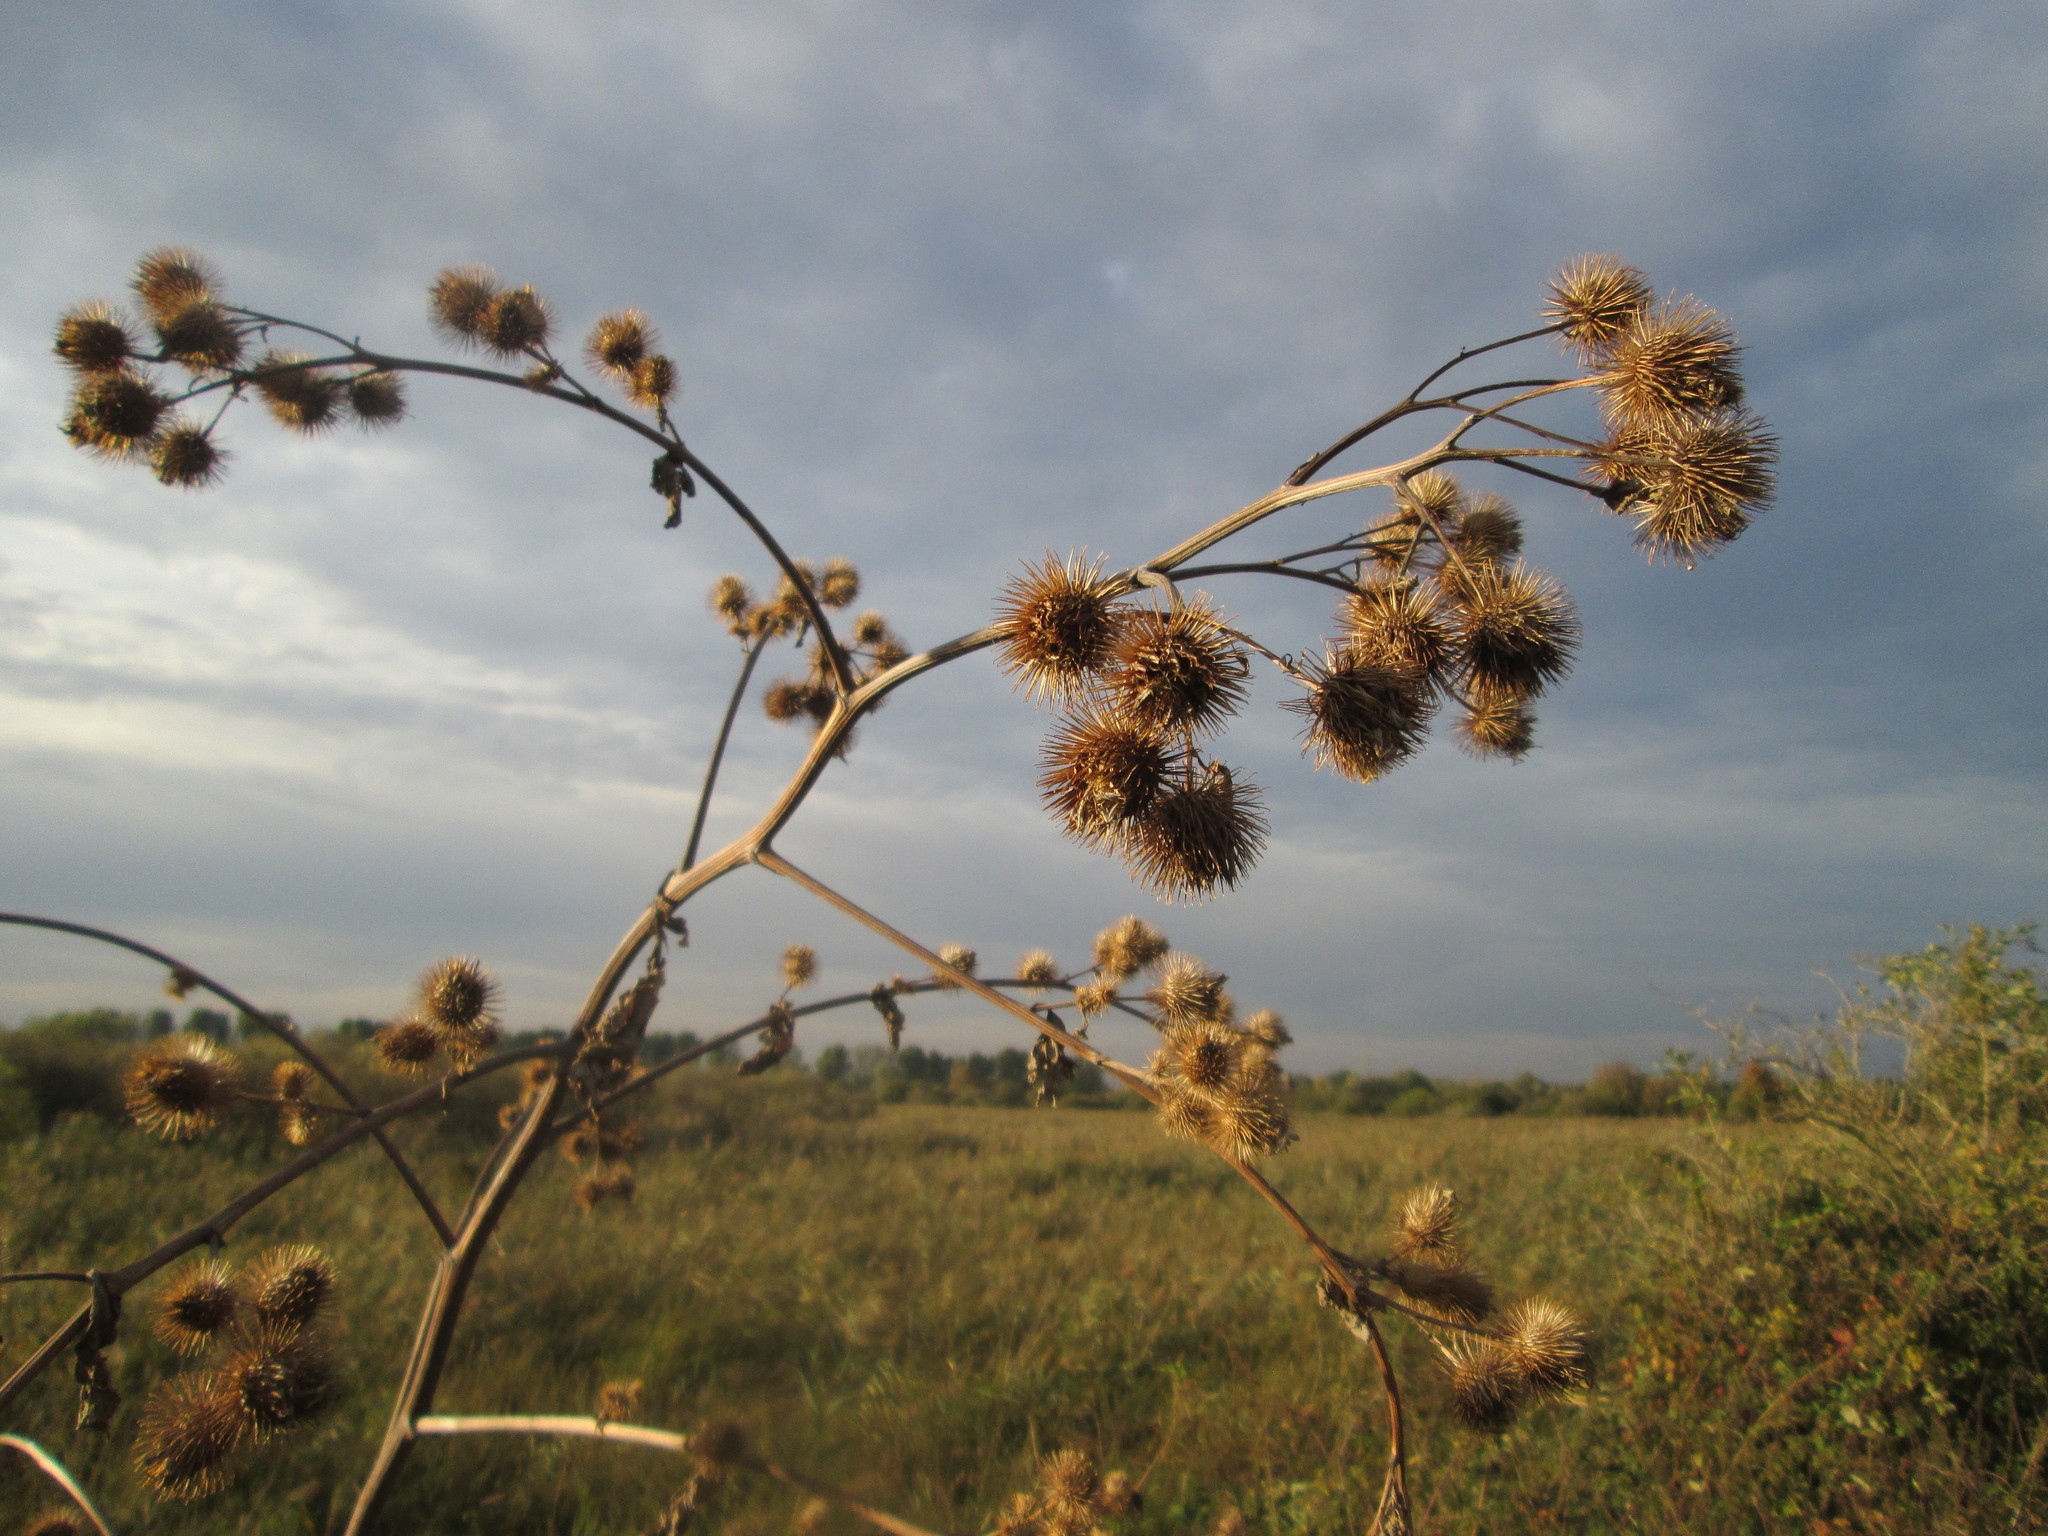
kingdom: Plantae
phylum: Tracheophyta
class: Magnoliopsida
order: Asterales
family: Asteraceae
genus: Arctium
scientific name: Arctium lappa
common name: Greater burdock
